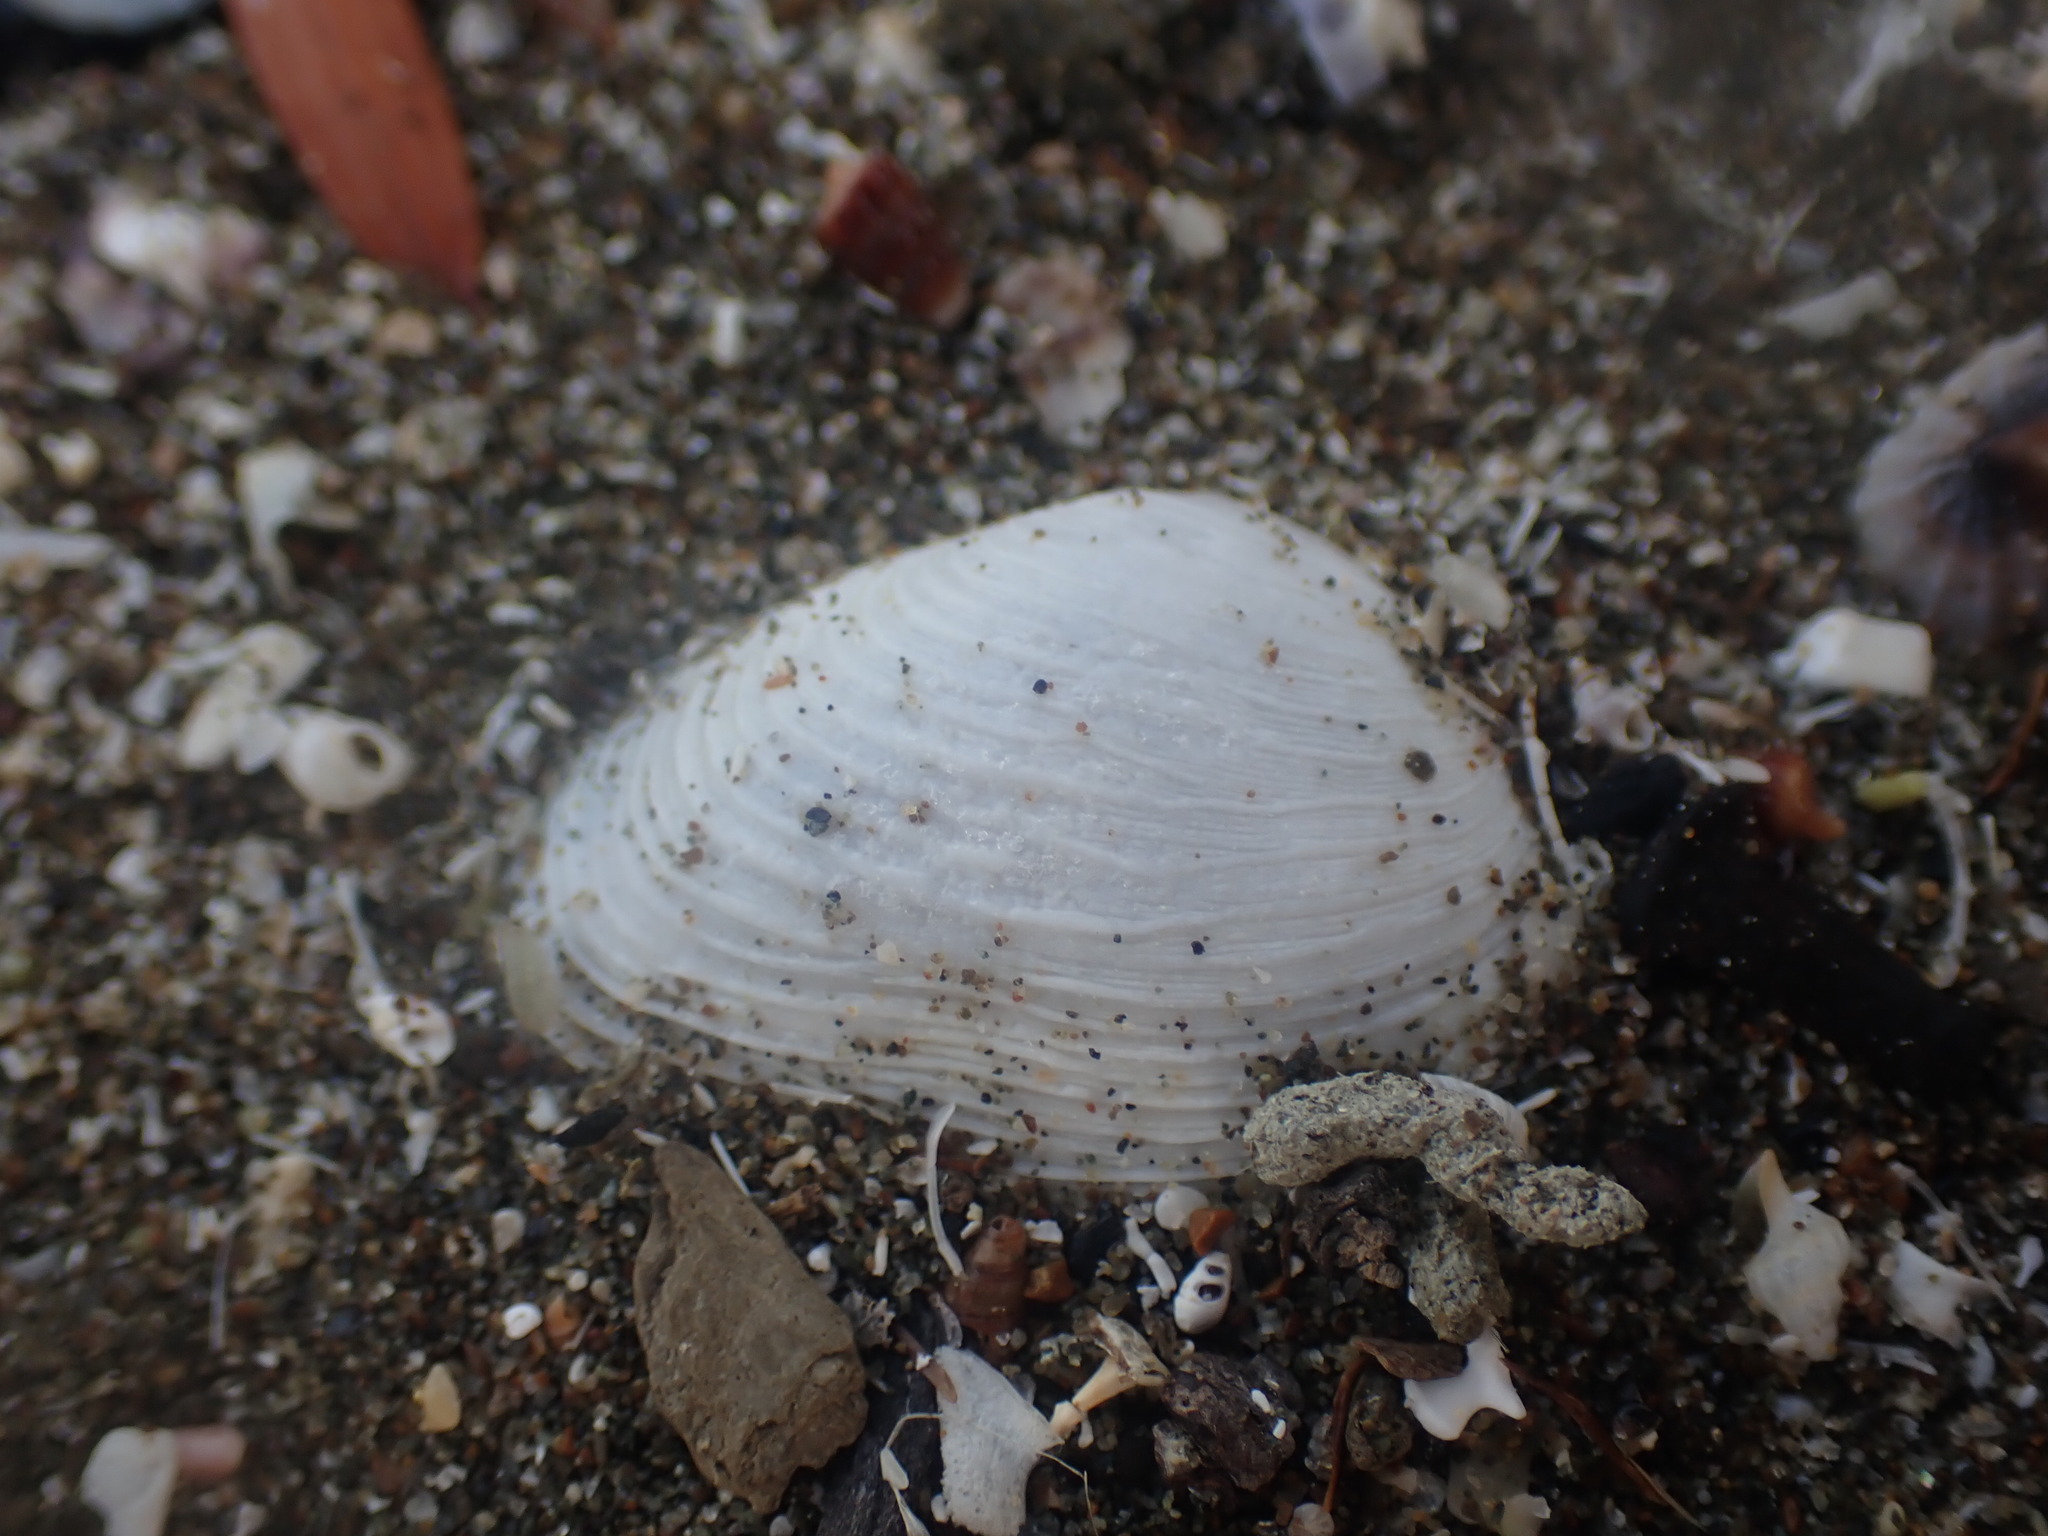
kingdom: Animalia
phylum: Mollusca
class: Bivalvia
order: Venerida
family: Veneridae
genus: Irus
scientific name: Irus reflexus
